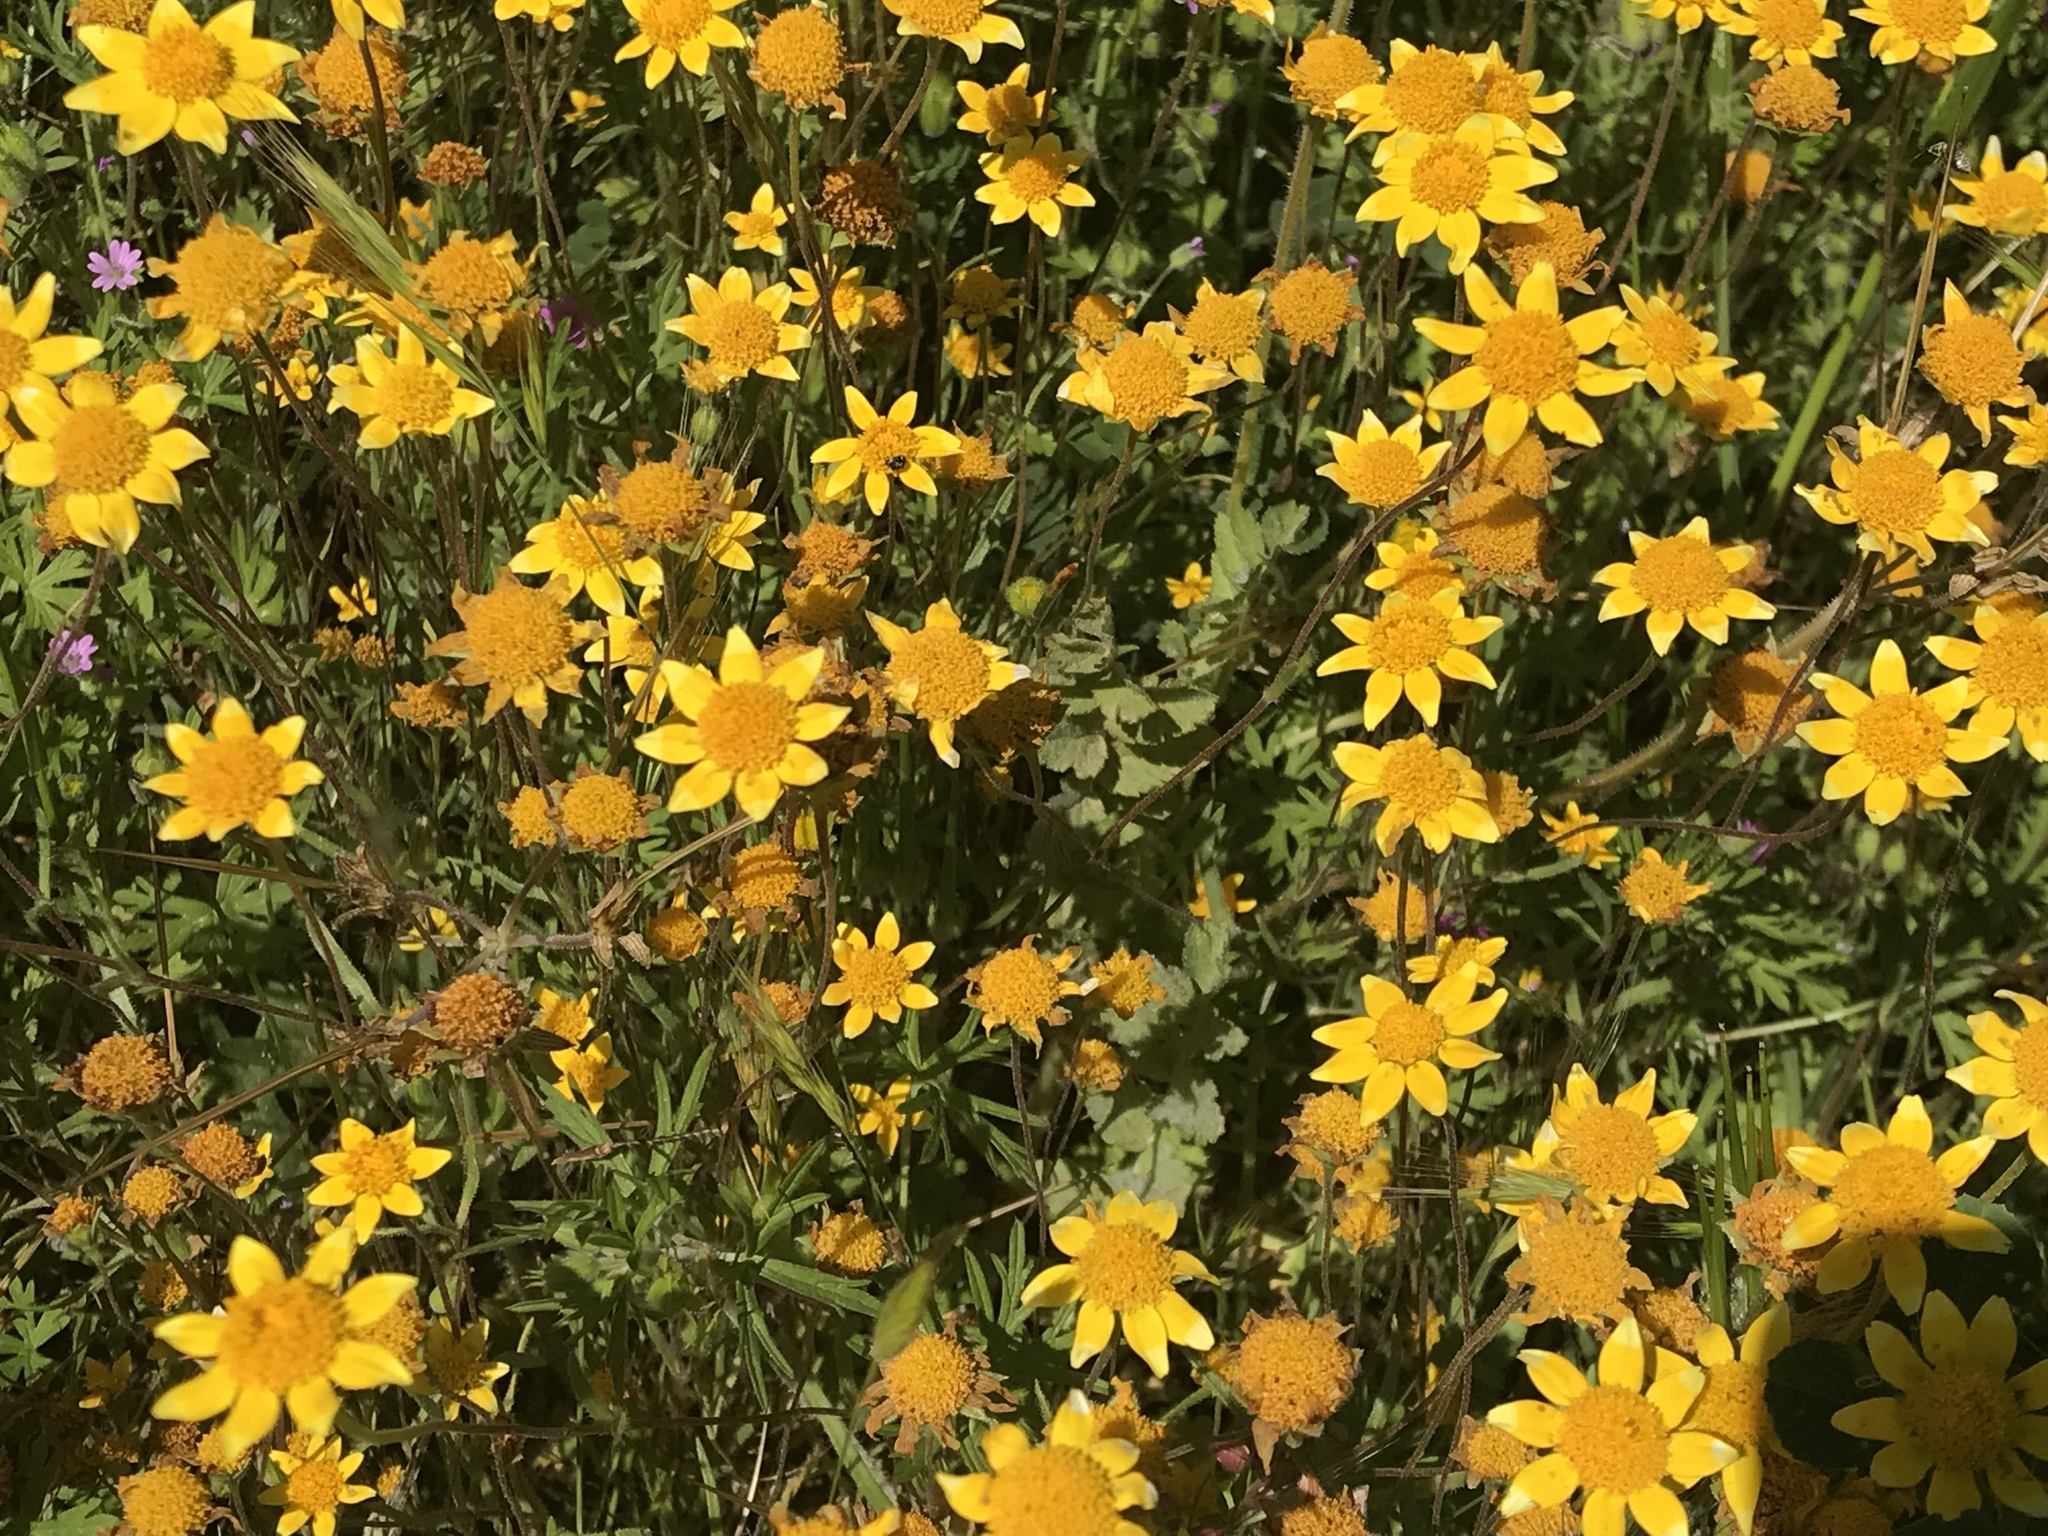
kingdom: Plantae
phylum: Tracheophyta
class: Magnoliopsida
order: Asterales
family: Asteraceae
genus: Lasthenia
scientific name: Lasthenia californica
